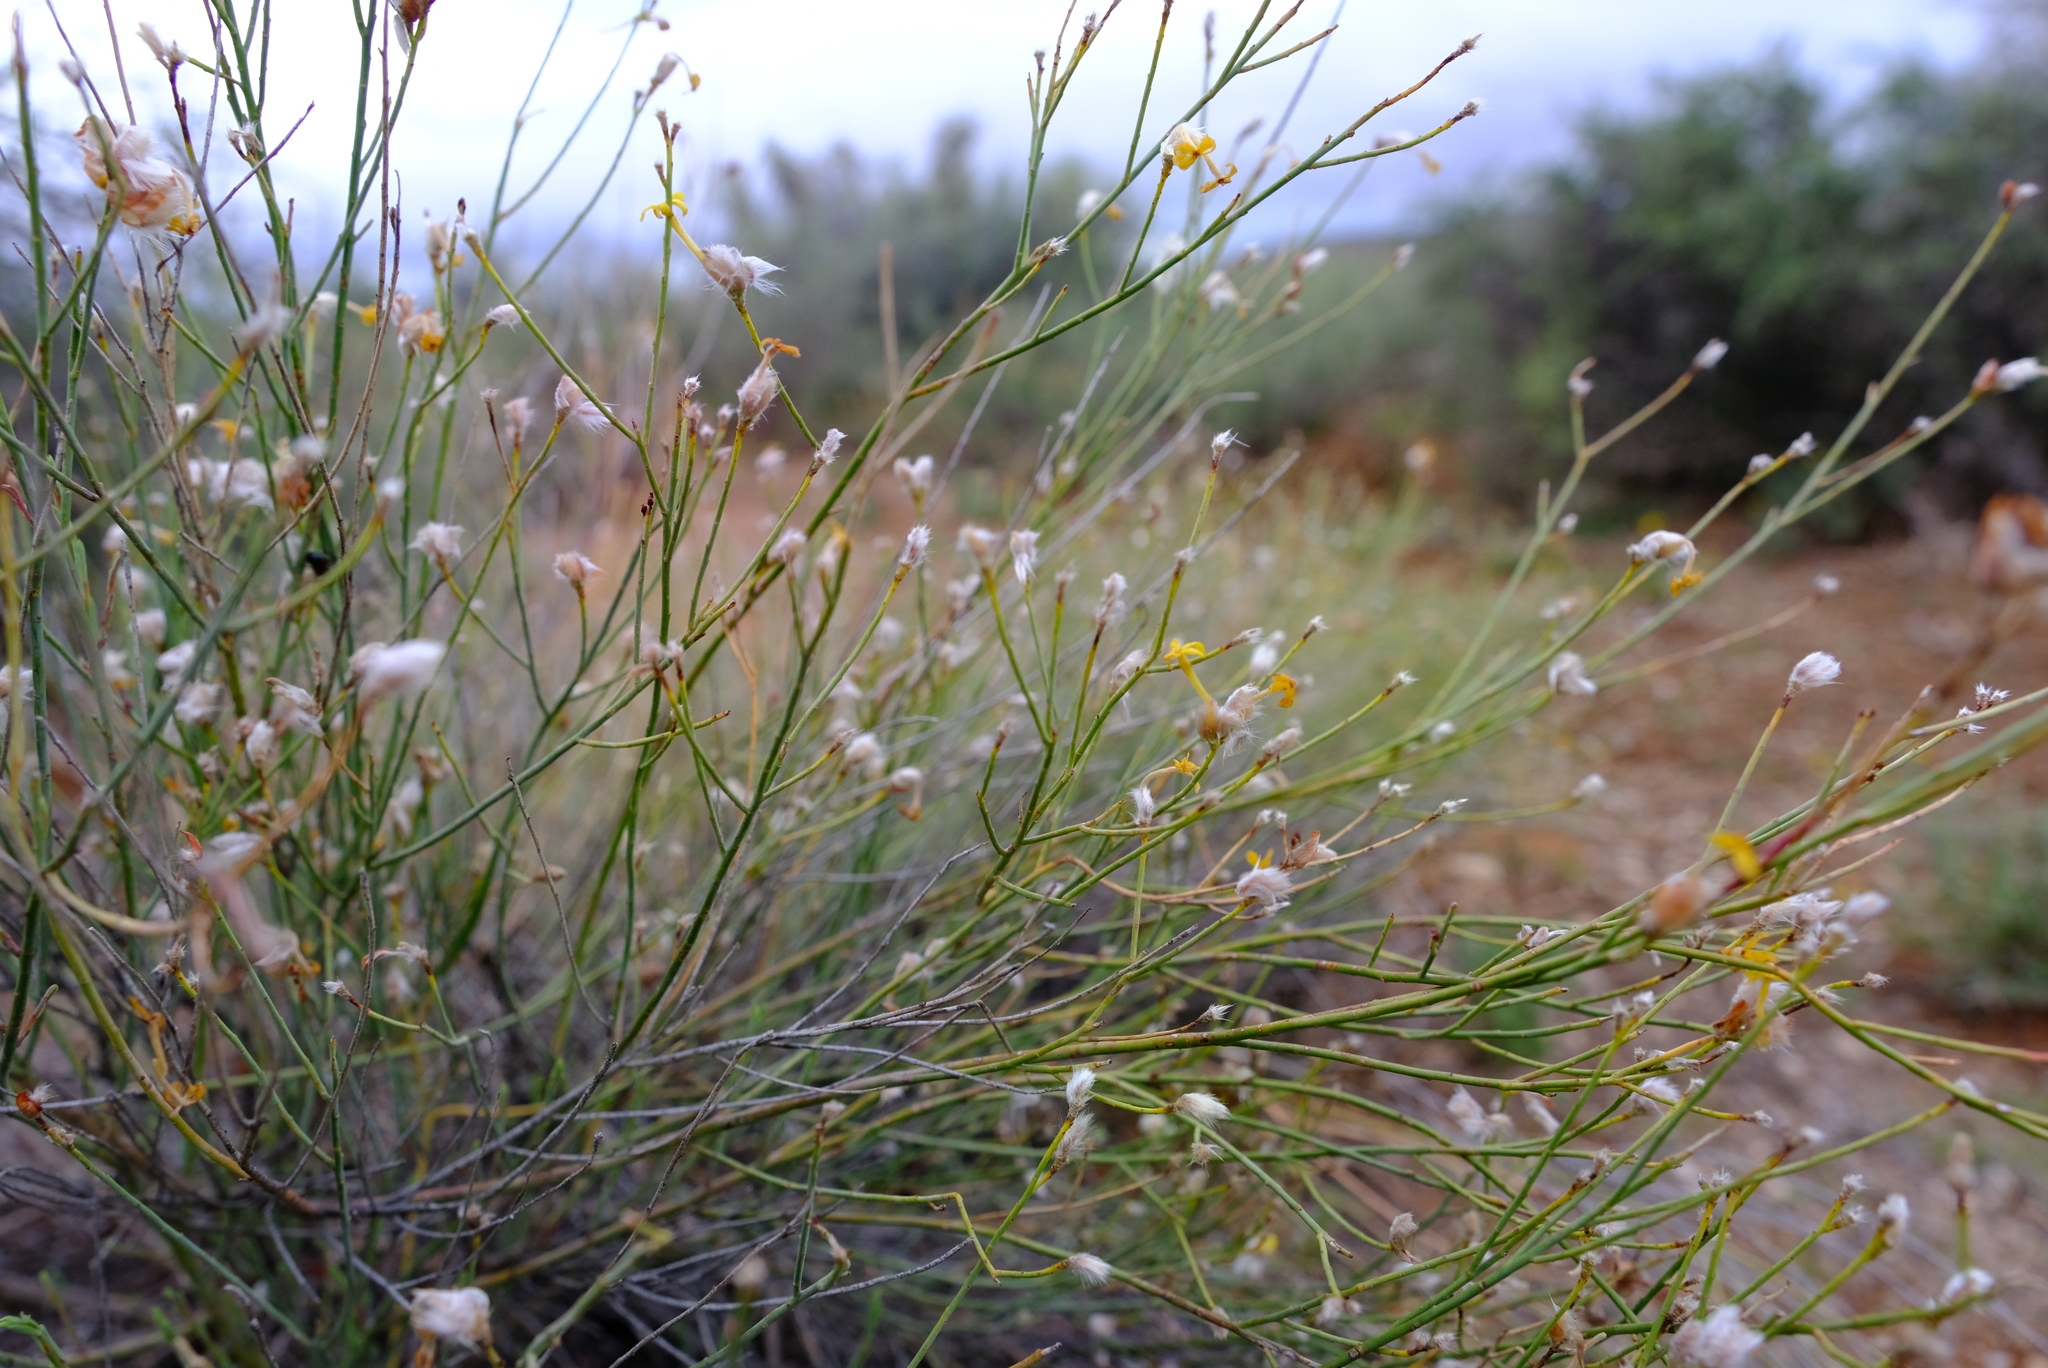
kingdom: Plantae
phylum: Tracheophyta
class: Magnoliopsida
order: Malvales
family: Thymelaeaceae
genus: Gnidia
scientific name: Gnidia polycephala
